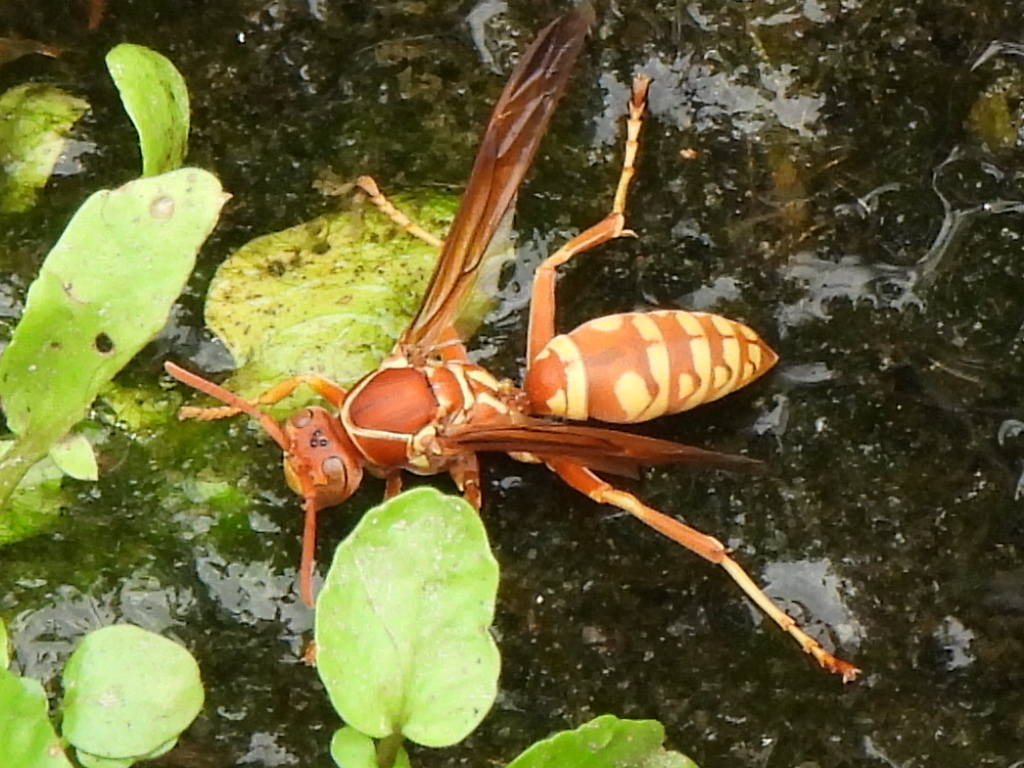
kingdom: Animalia
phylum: Arthropoda
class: Insecta
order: Hymenoptera
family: Eumenidae
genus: Polistes
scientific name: Polistes apachus
